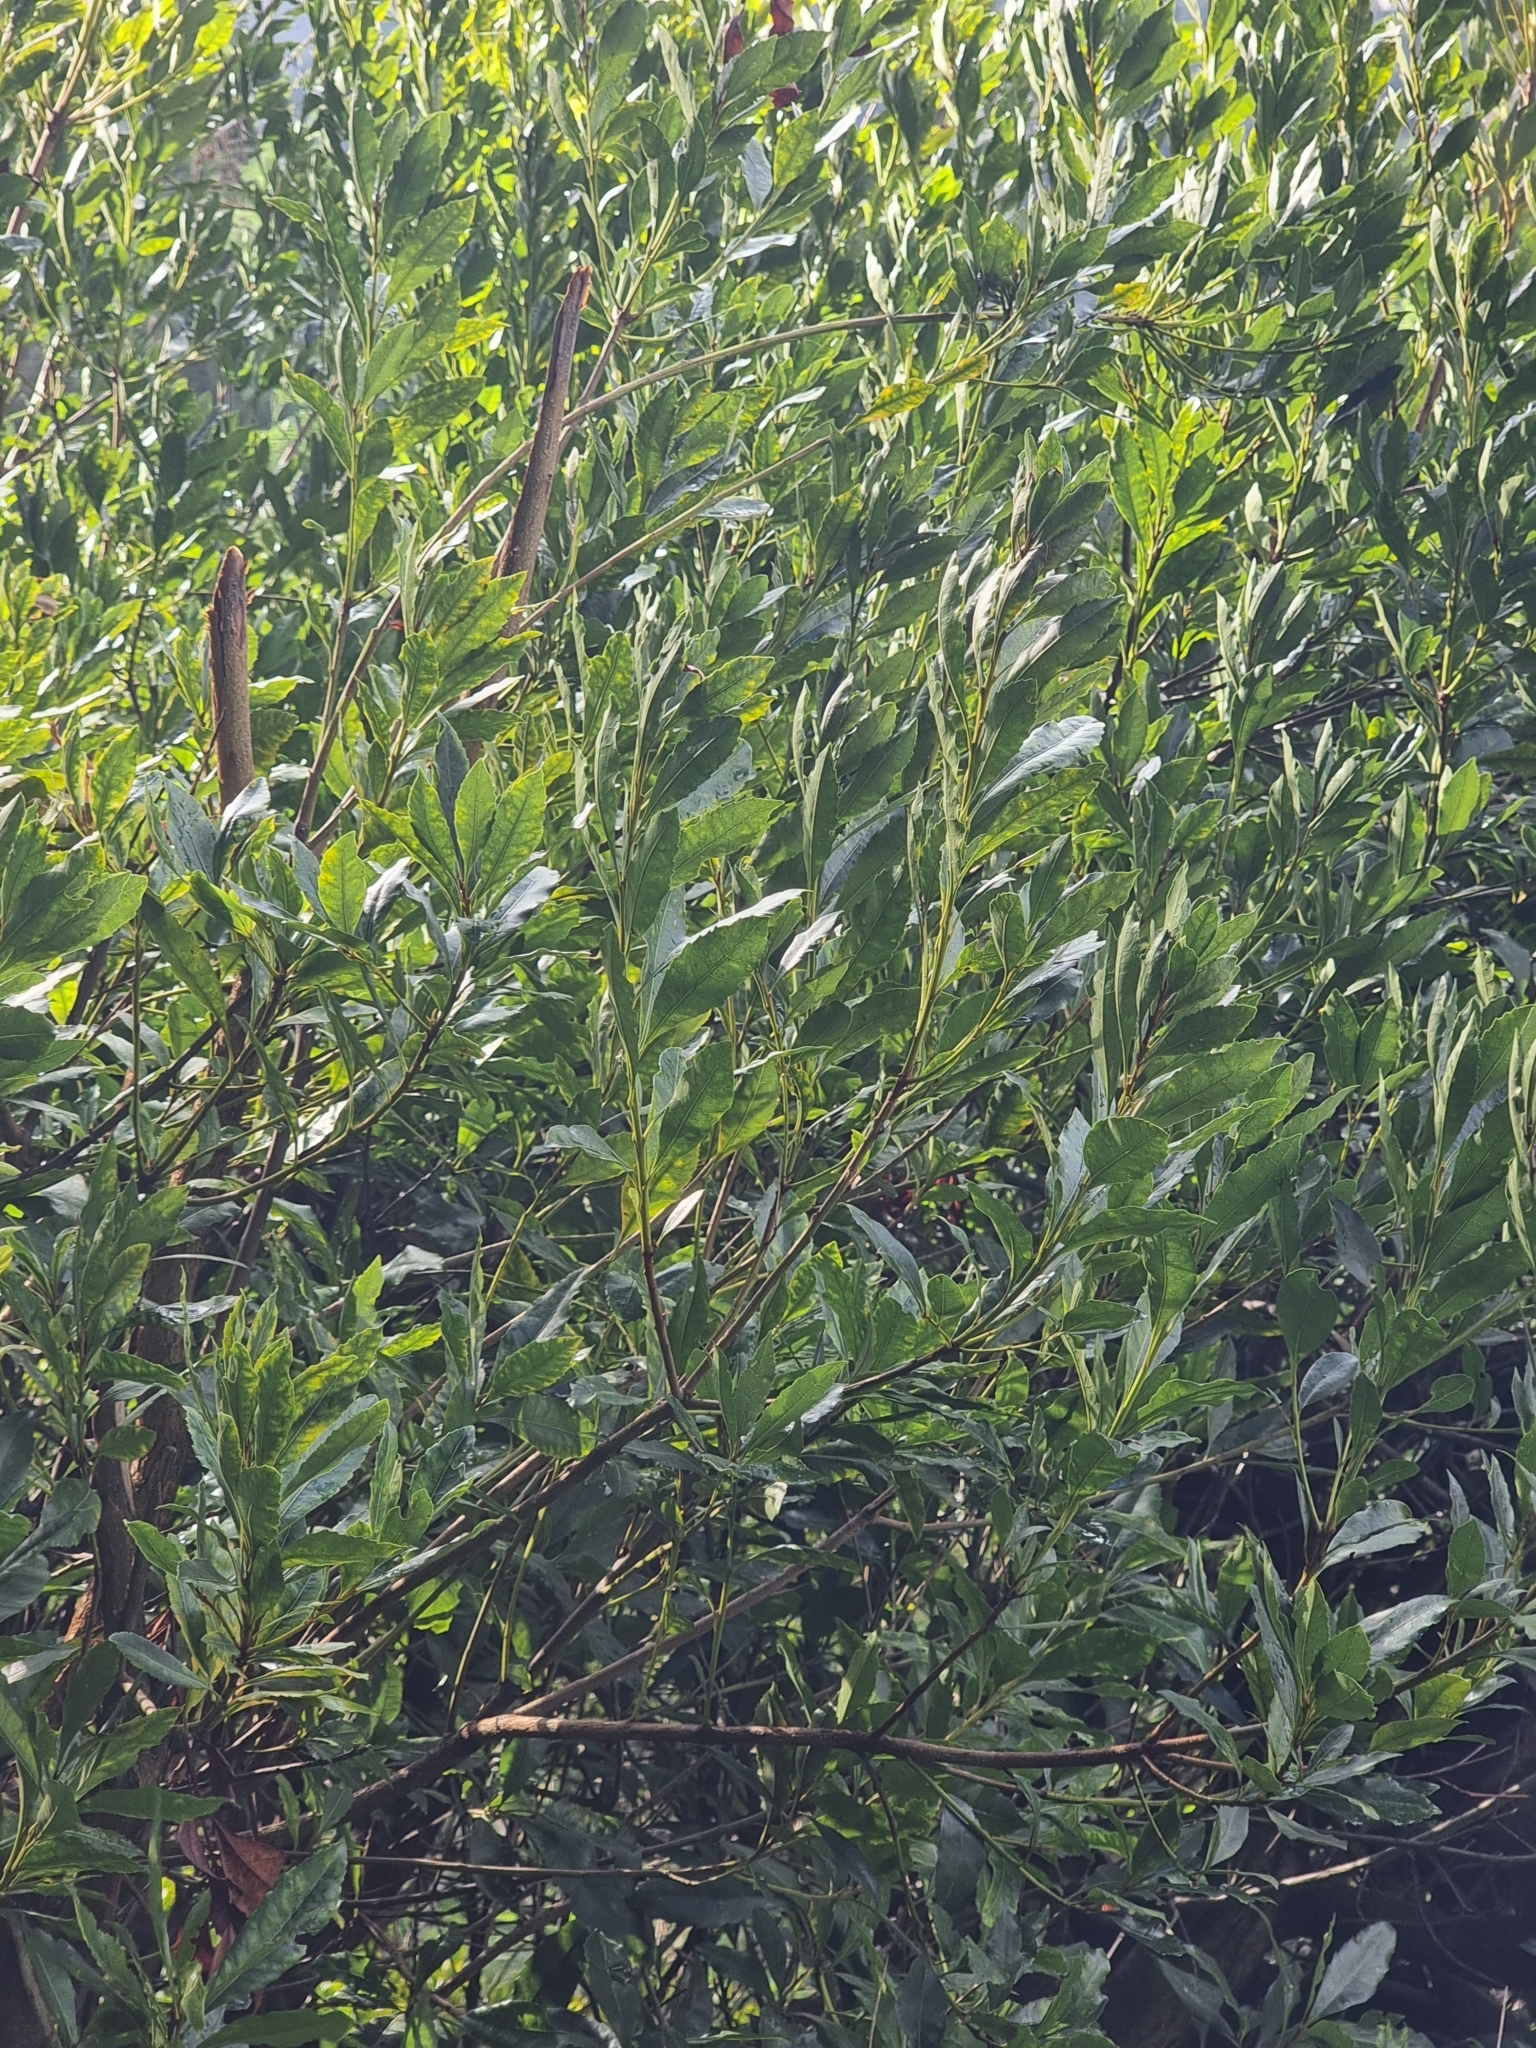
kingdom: Plantae
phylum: Tracheophyta
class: Magnoliopsida
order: Fagales
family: Myricaceae
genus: Morella
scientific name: Morella faya
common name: Firetree
